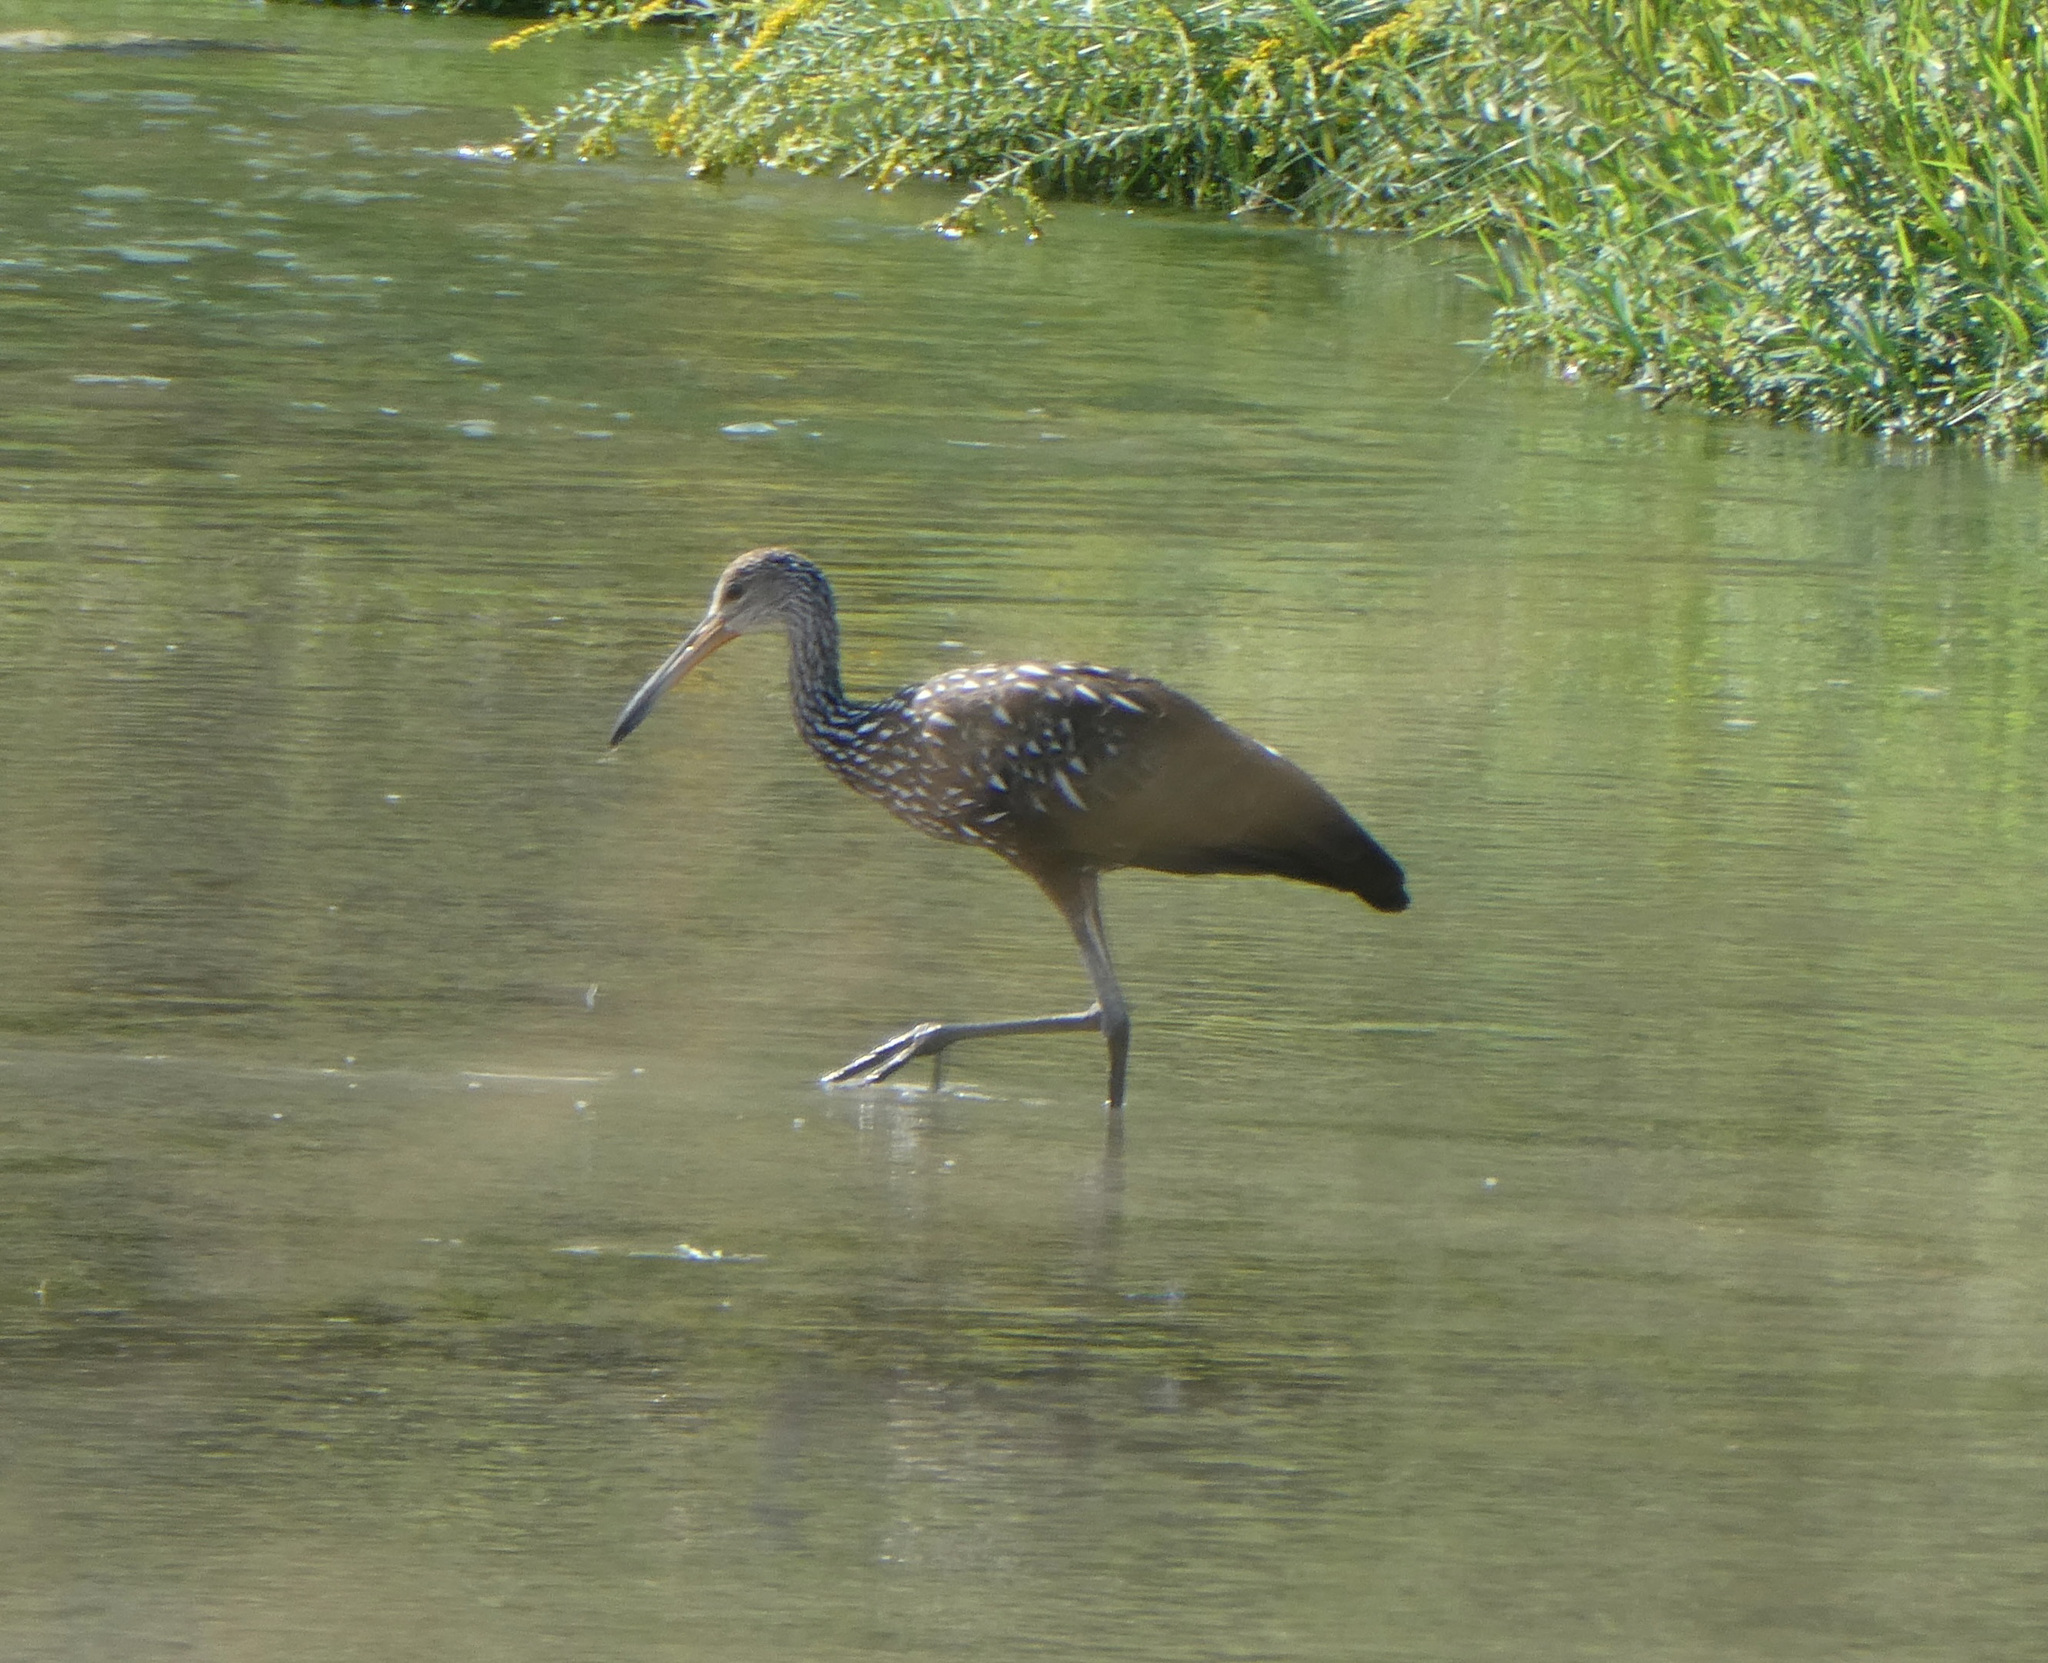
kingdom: Animalia
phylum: Chordata
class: Aves
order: Gruiformes
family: Aramidae
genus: Aramus
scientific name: Aramus guarauna
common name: Limpkin
